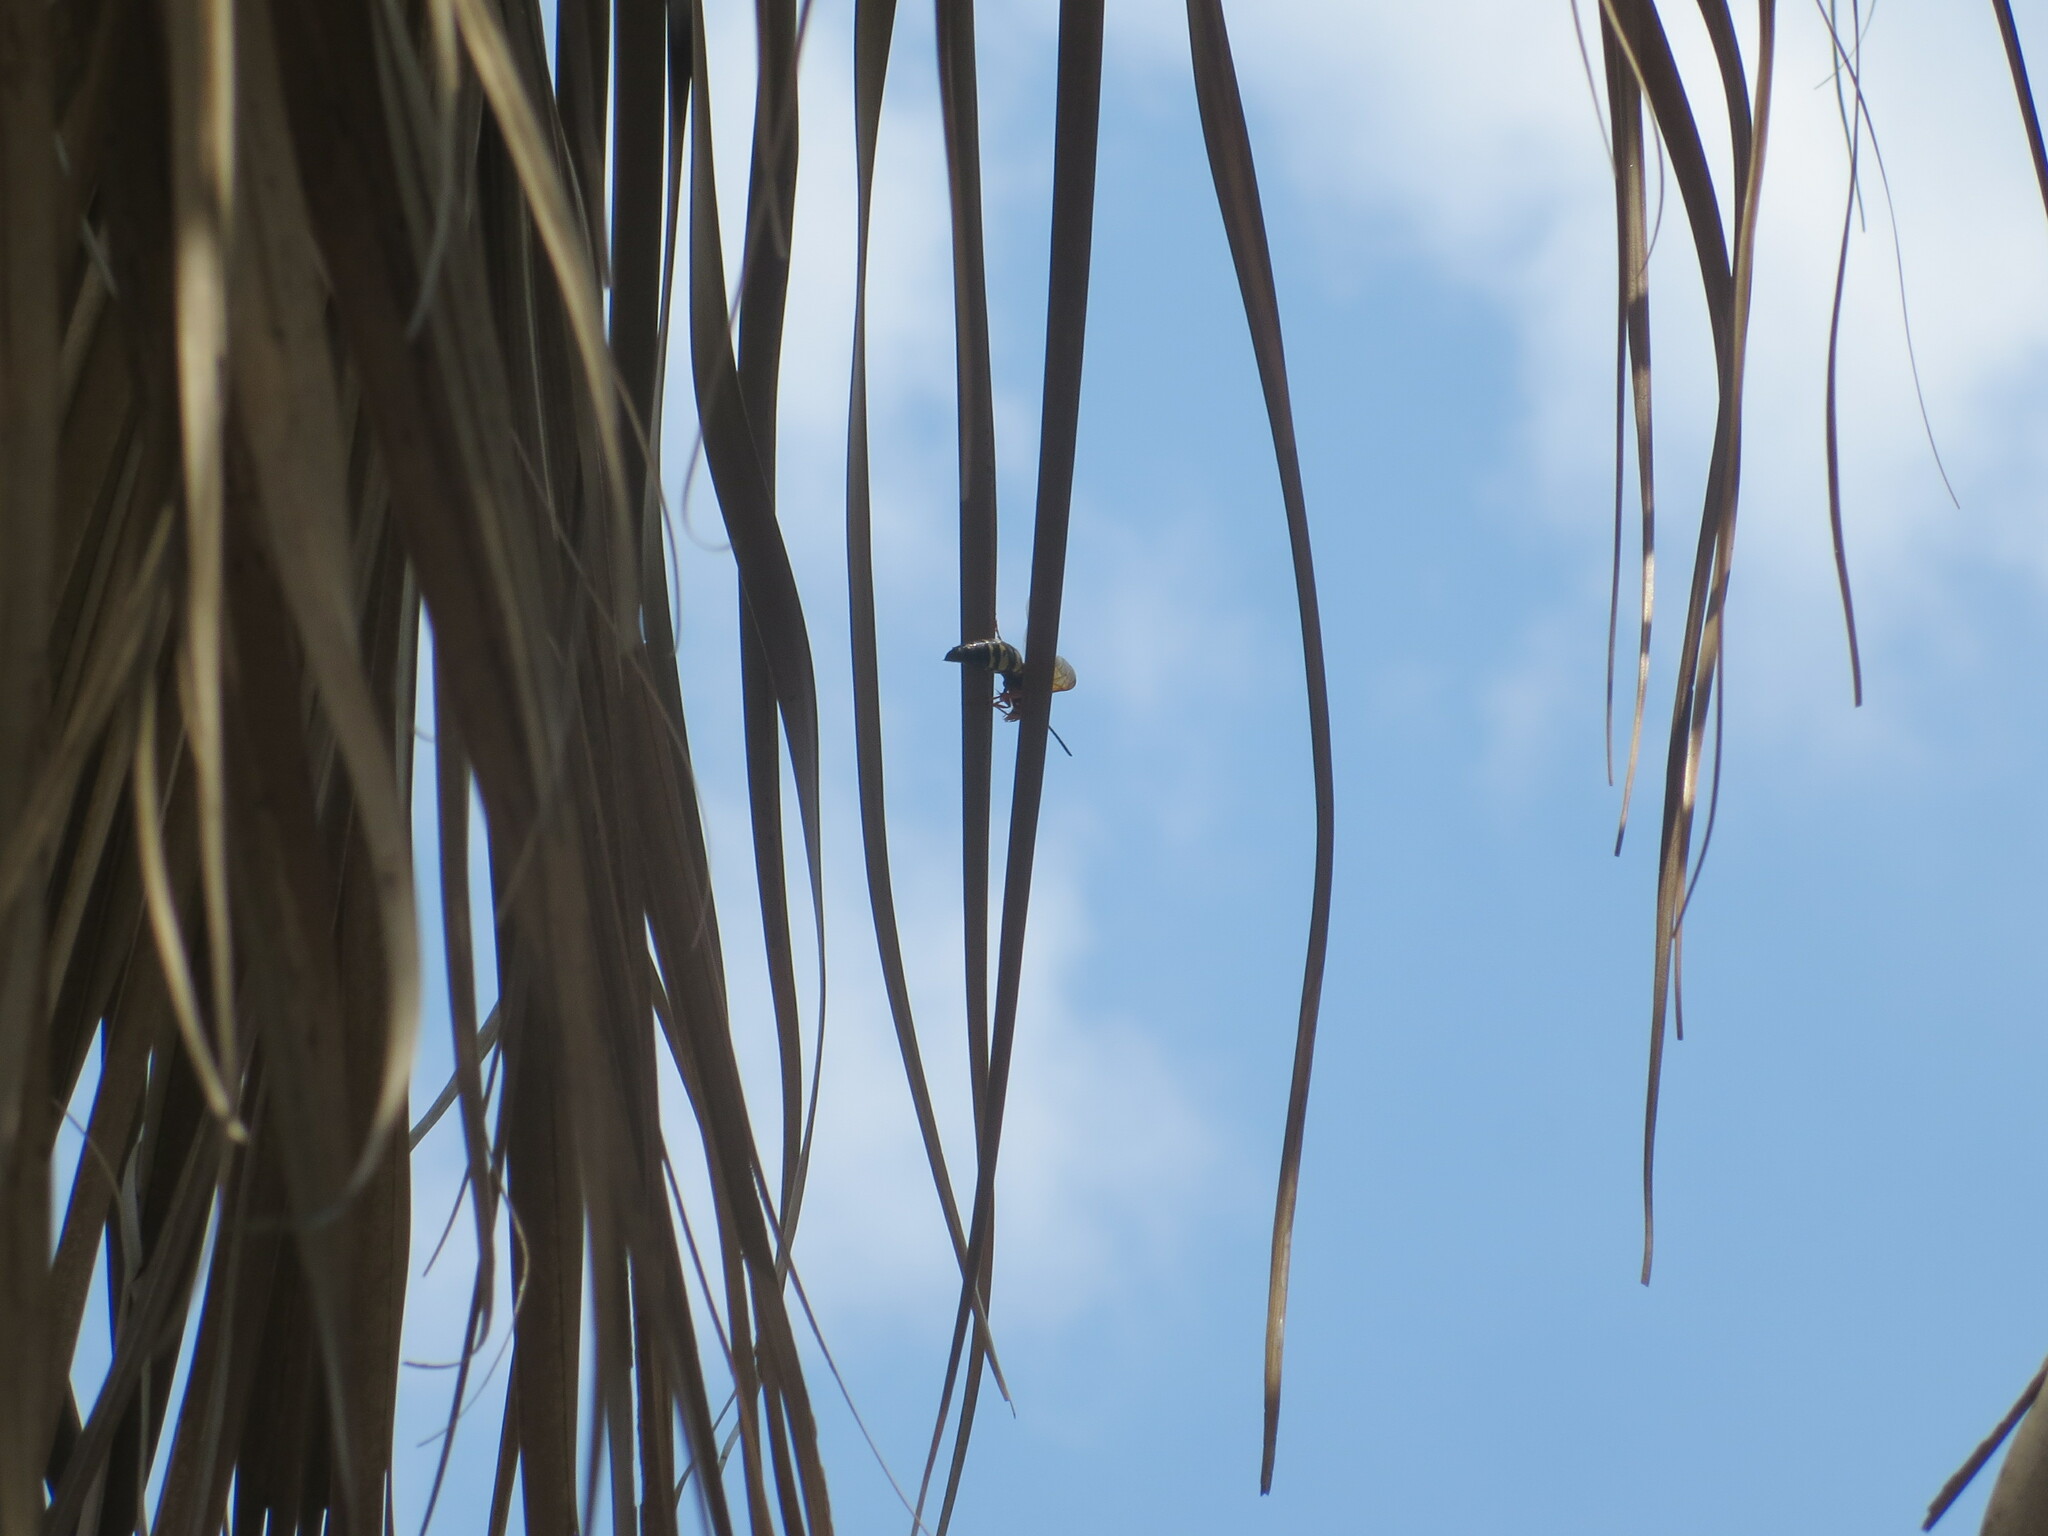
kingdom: Animalia
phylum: Arthropoda
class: Insecta
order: Hymenoptera
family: Crabronidae
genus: Sphecius
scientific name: Sphecius speciosus
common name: Cicada killer
